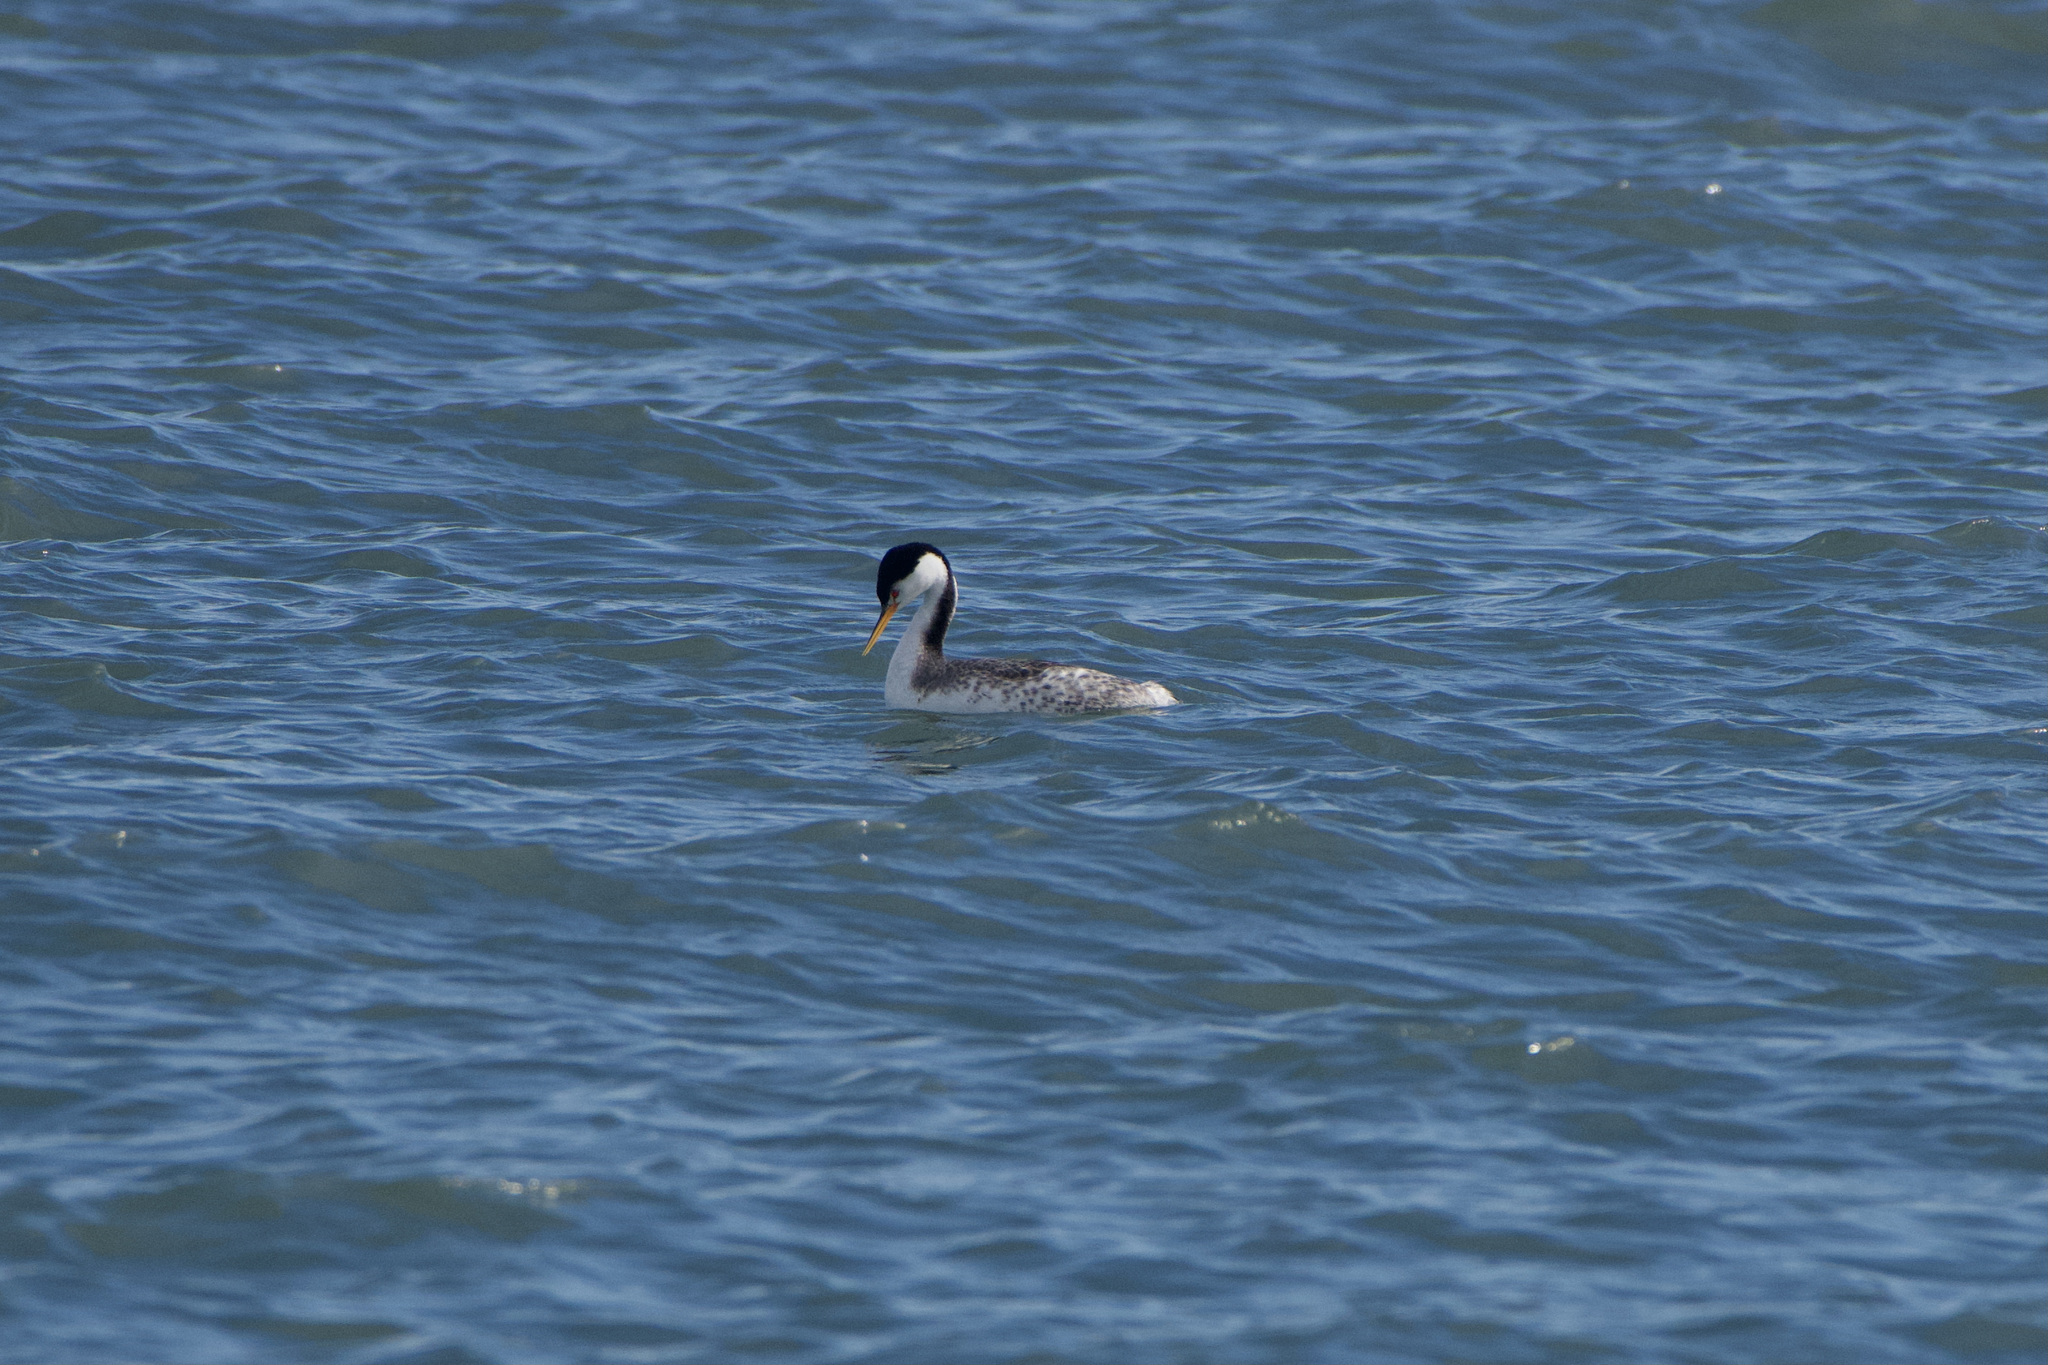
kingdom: Animalia
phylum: Chordata
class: Aves
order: Podicipediformes
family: Podicipedidae
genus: Aechmophorus
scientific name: Aechmophorus clarkii
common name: Clark's grebe
